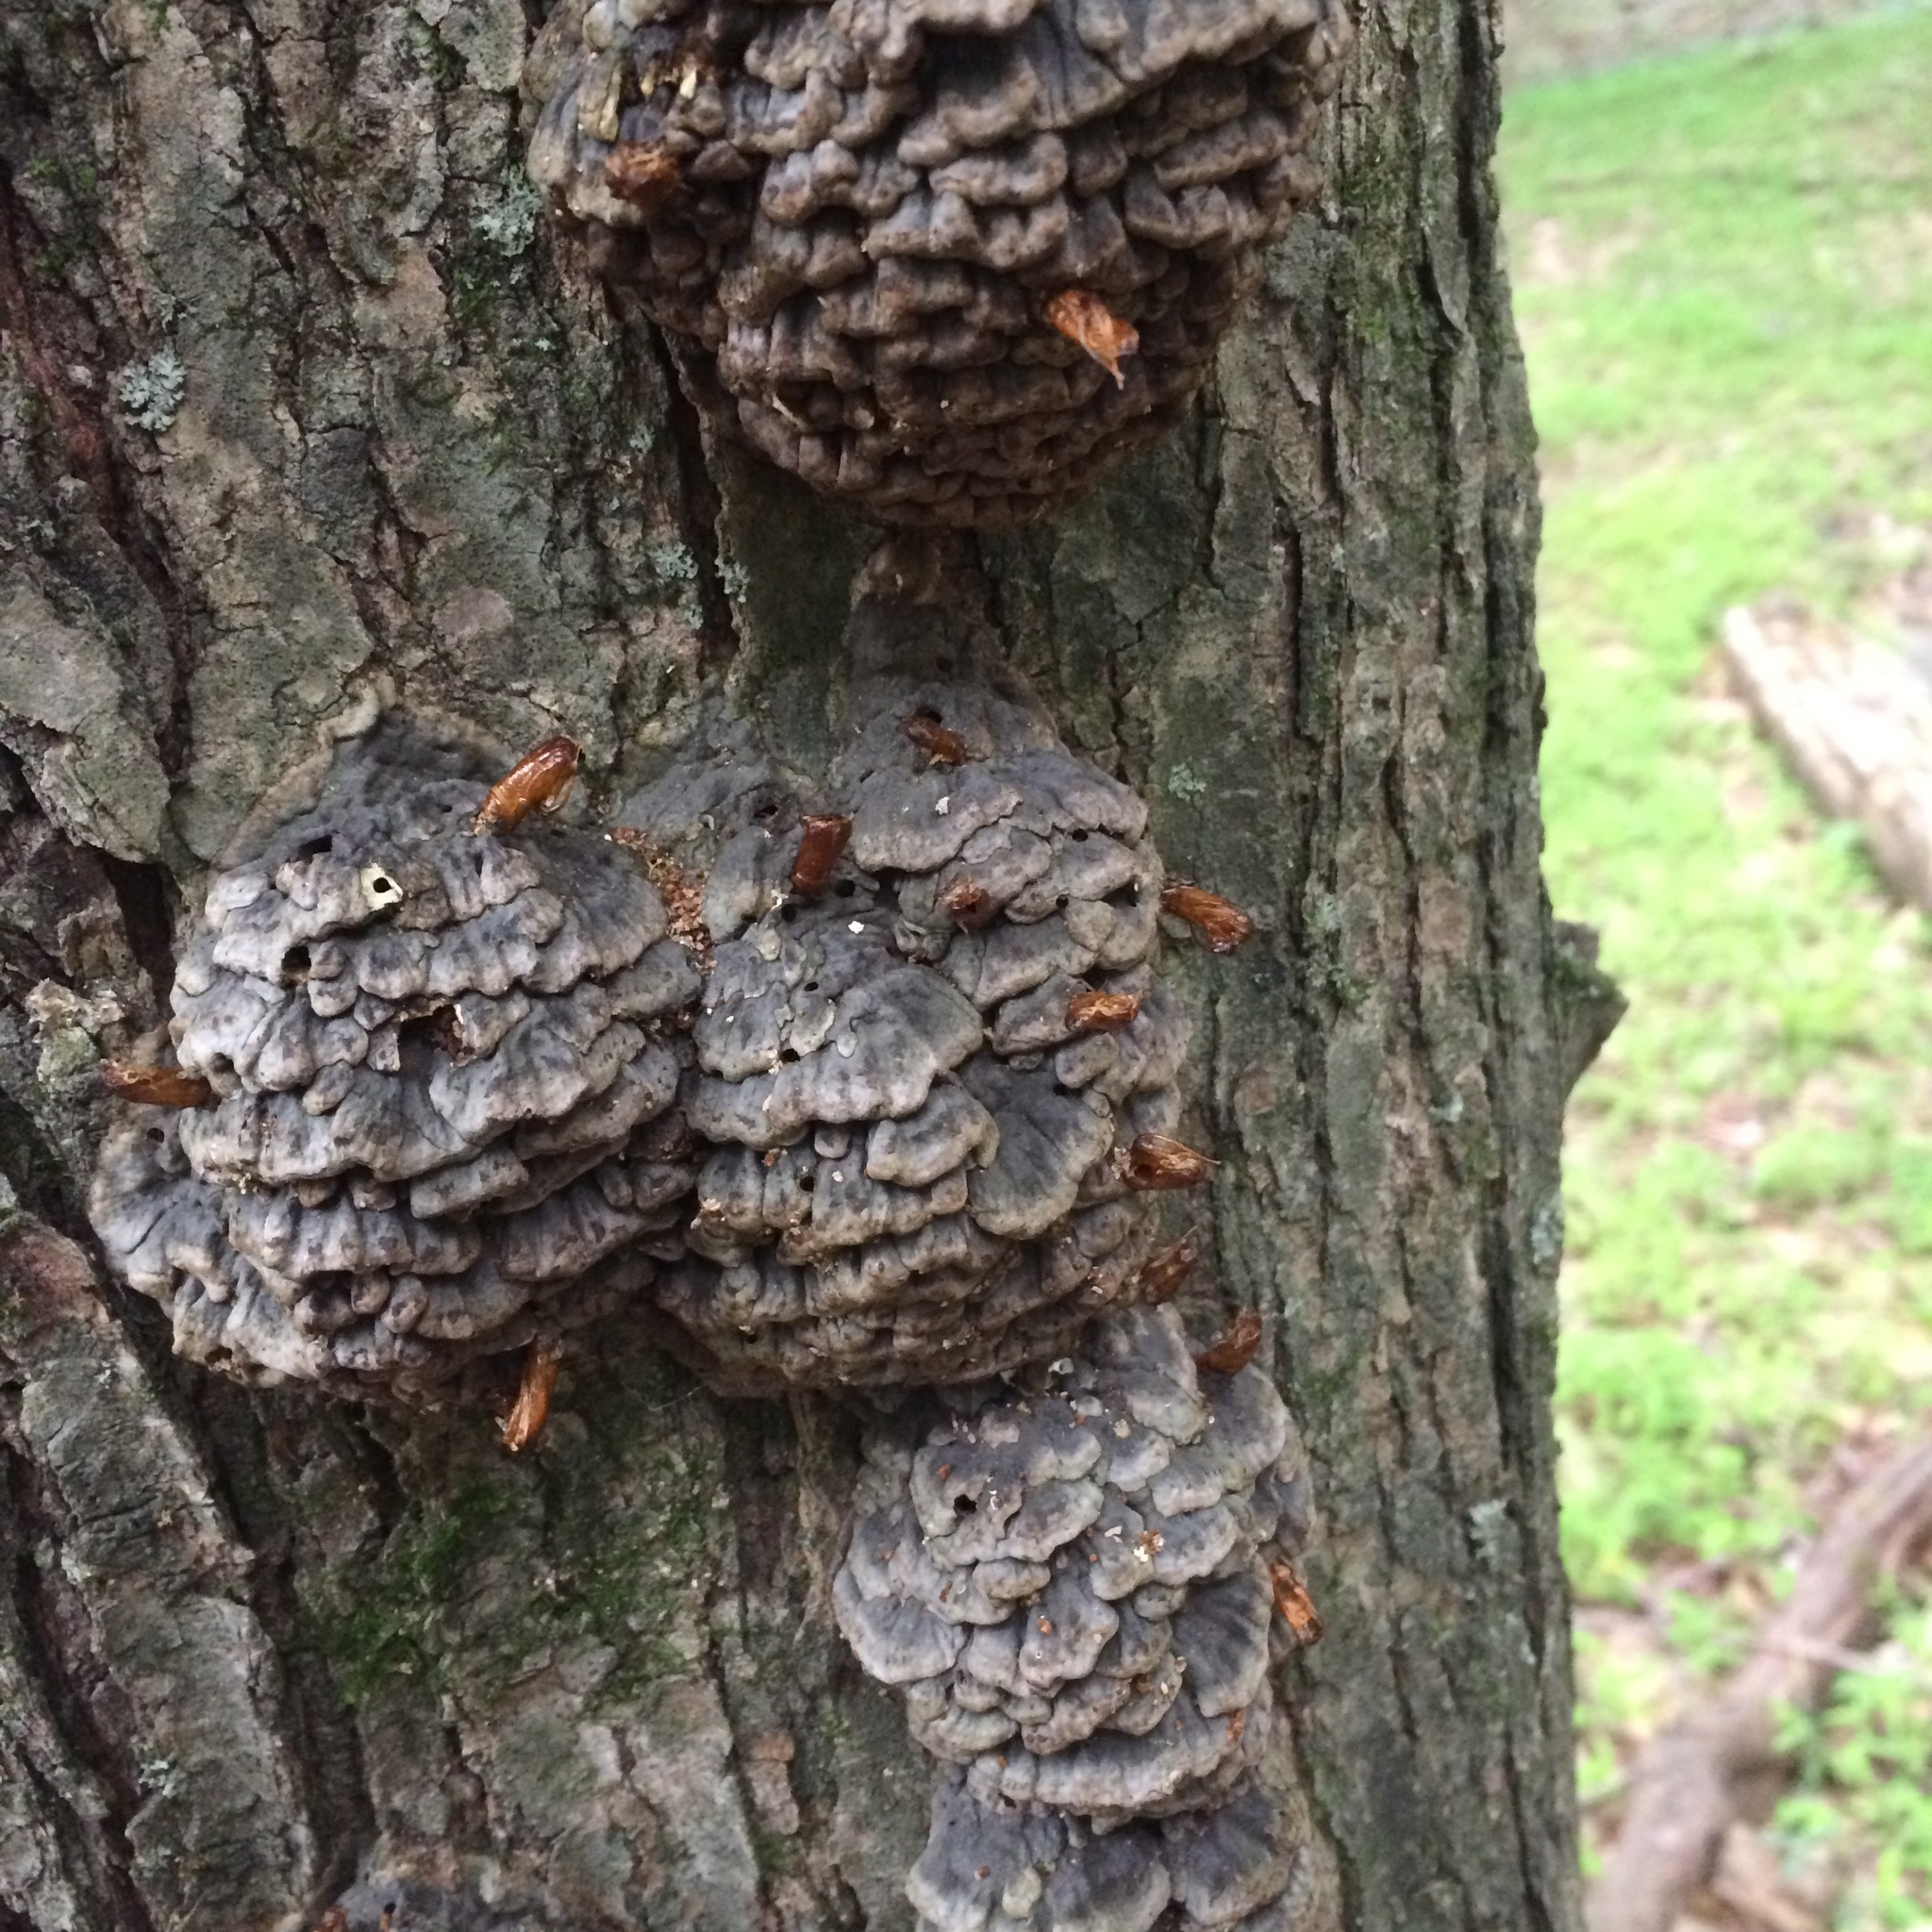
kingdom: Fungi
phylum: Basidiomycota
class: Agaricomycetes
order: Polyporales
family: Polyporaceae
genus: Globifomes
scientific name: Globifomes graveolens
